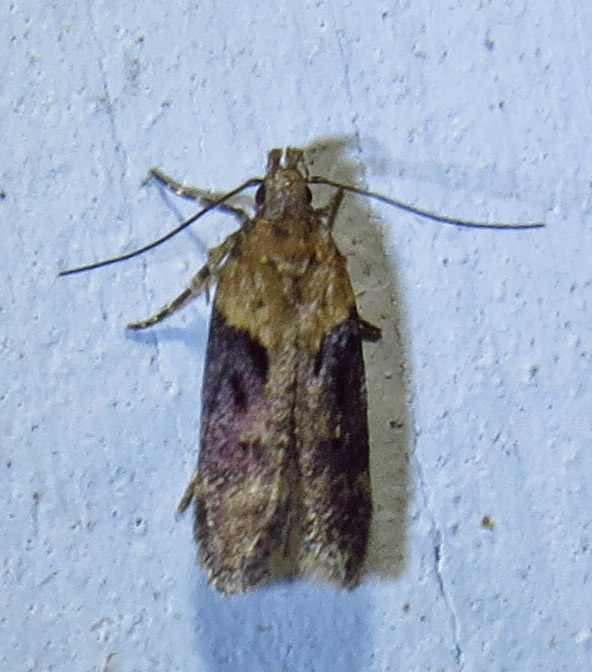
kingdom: Animalia
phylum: Arthropoda
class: Insecta
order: Lepidoptera
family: Gelechiidae
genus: Chionodes
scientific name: Chionodes mediofuscella
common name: Black-smudged chionodes moth
